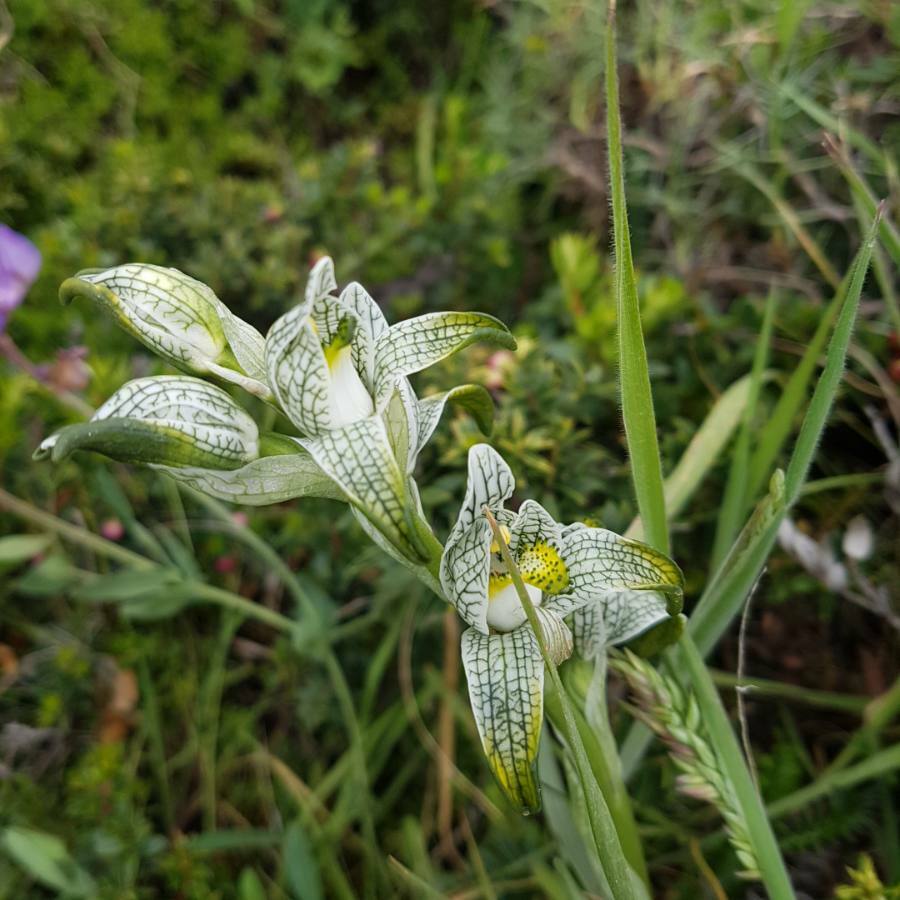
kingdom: Plantae
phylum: Tracheophyta
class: Liliopsida
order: Asparagales
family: Orchidaceae
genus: Chloraea
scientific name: Chloraea magellanica
